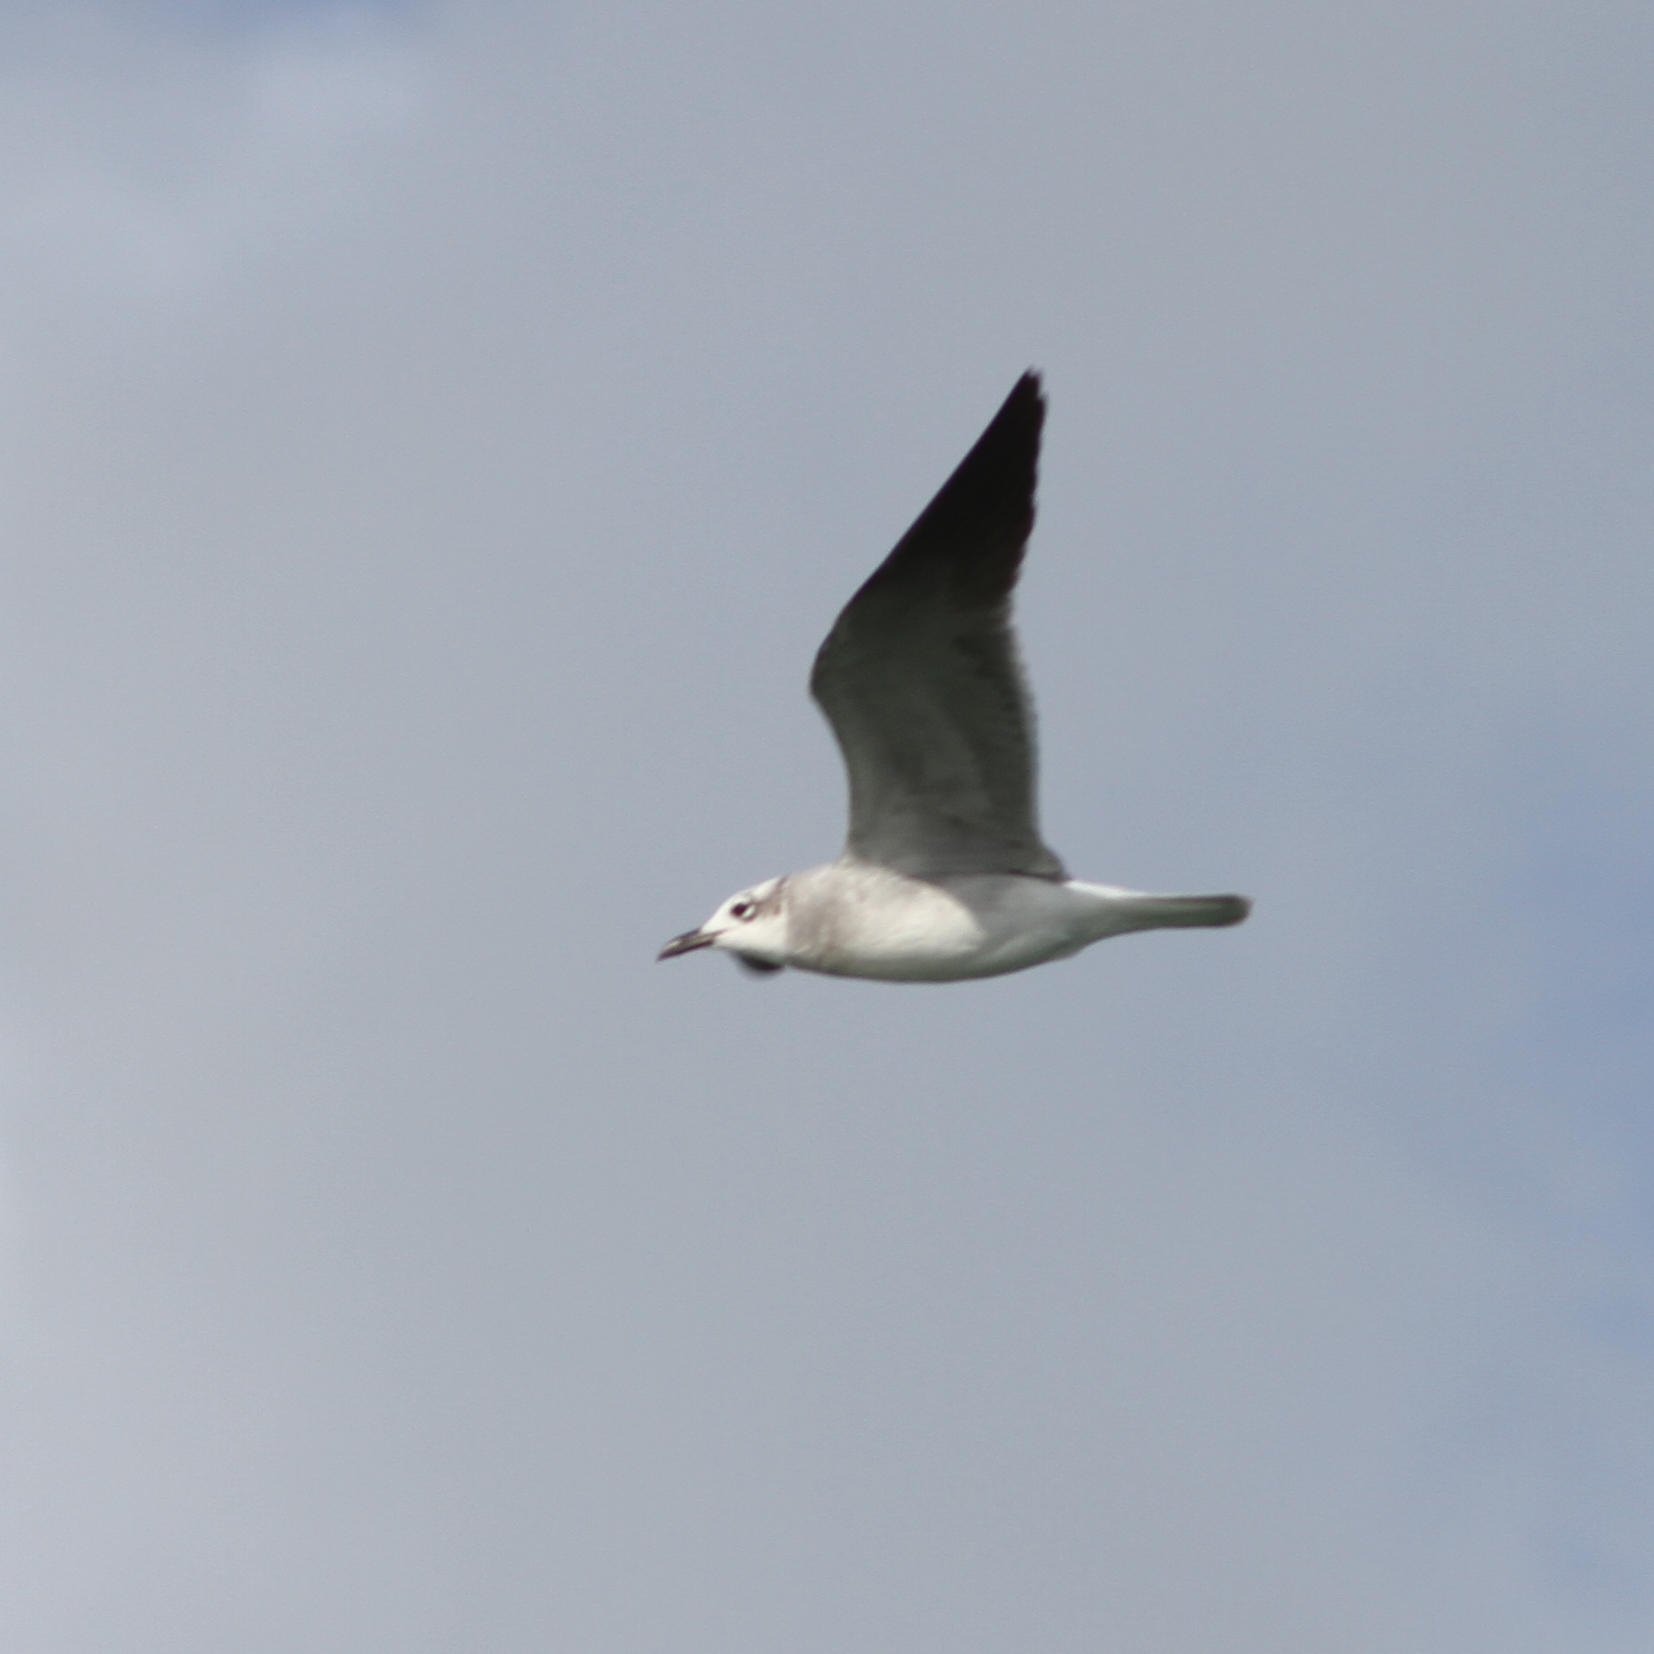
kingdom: Animalia
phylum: Chordata
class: Aves
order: Charadriiformes
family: Laridae
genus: Leucophaeus
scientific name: Leucophaeus atricilla
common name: Laughing gull
